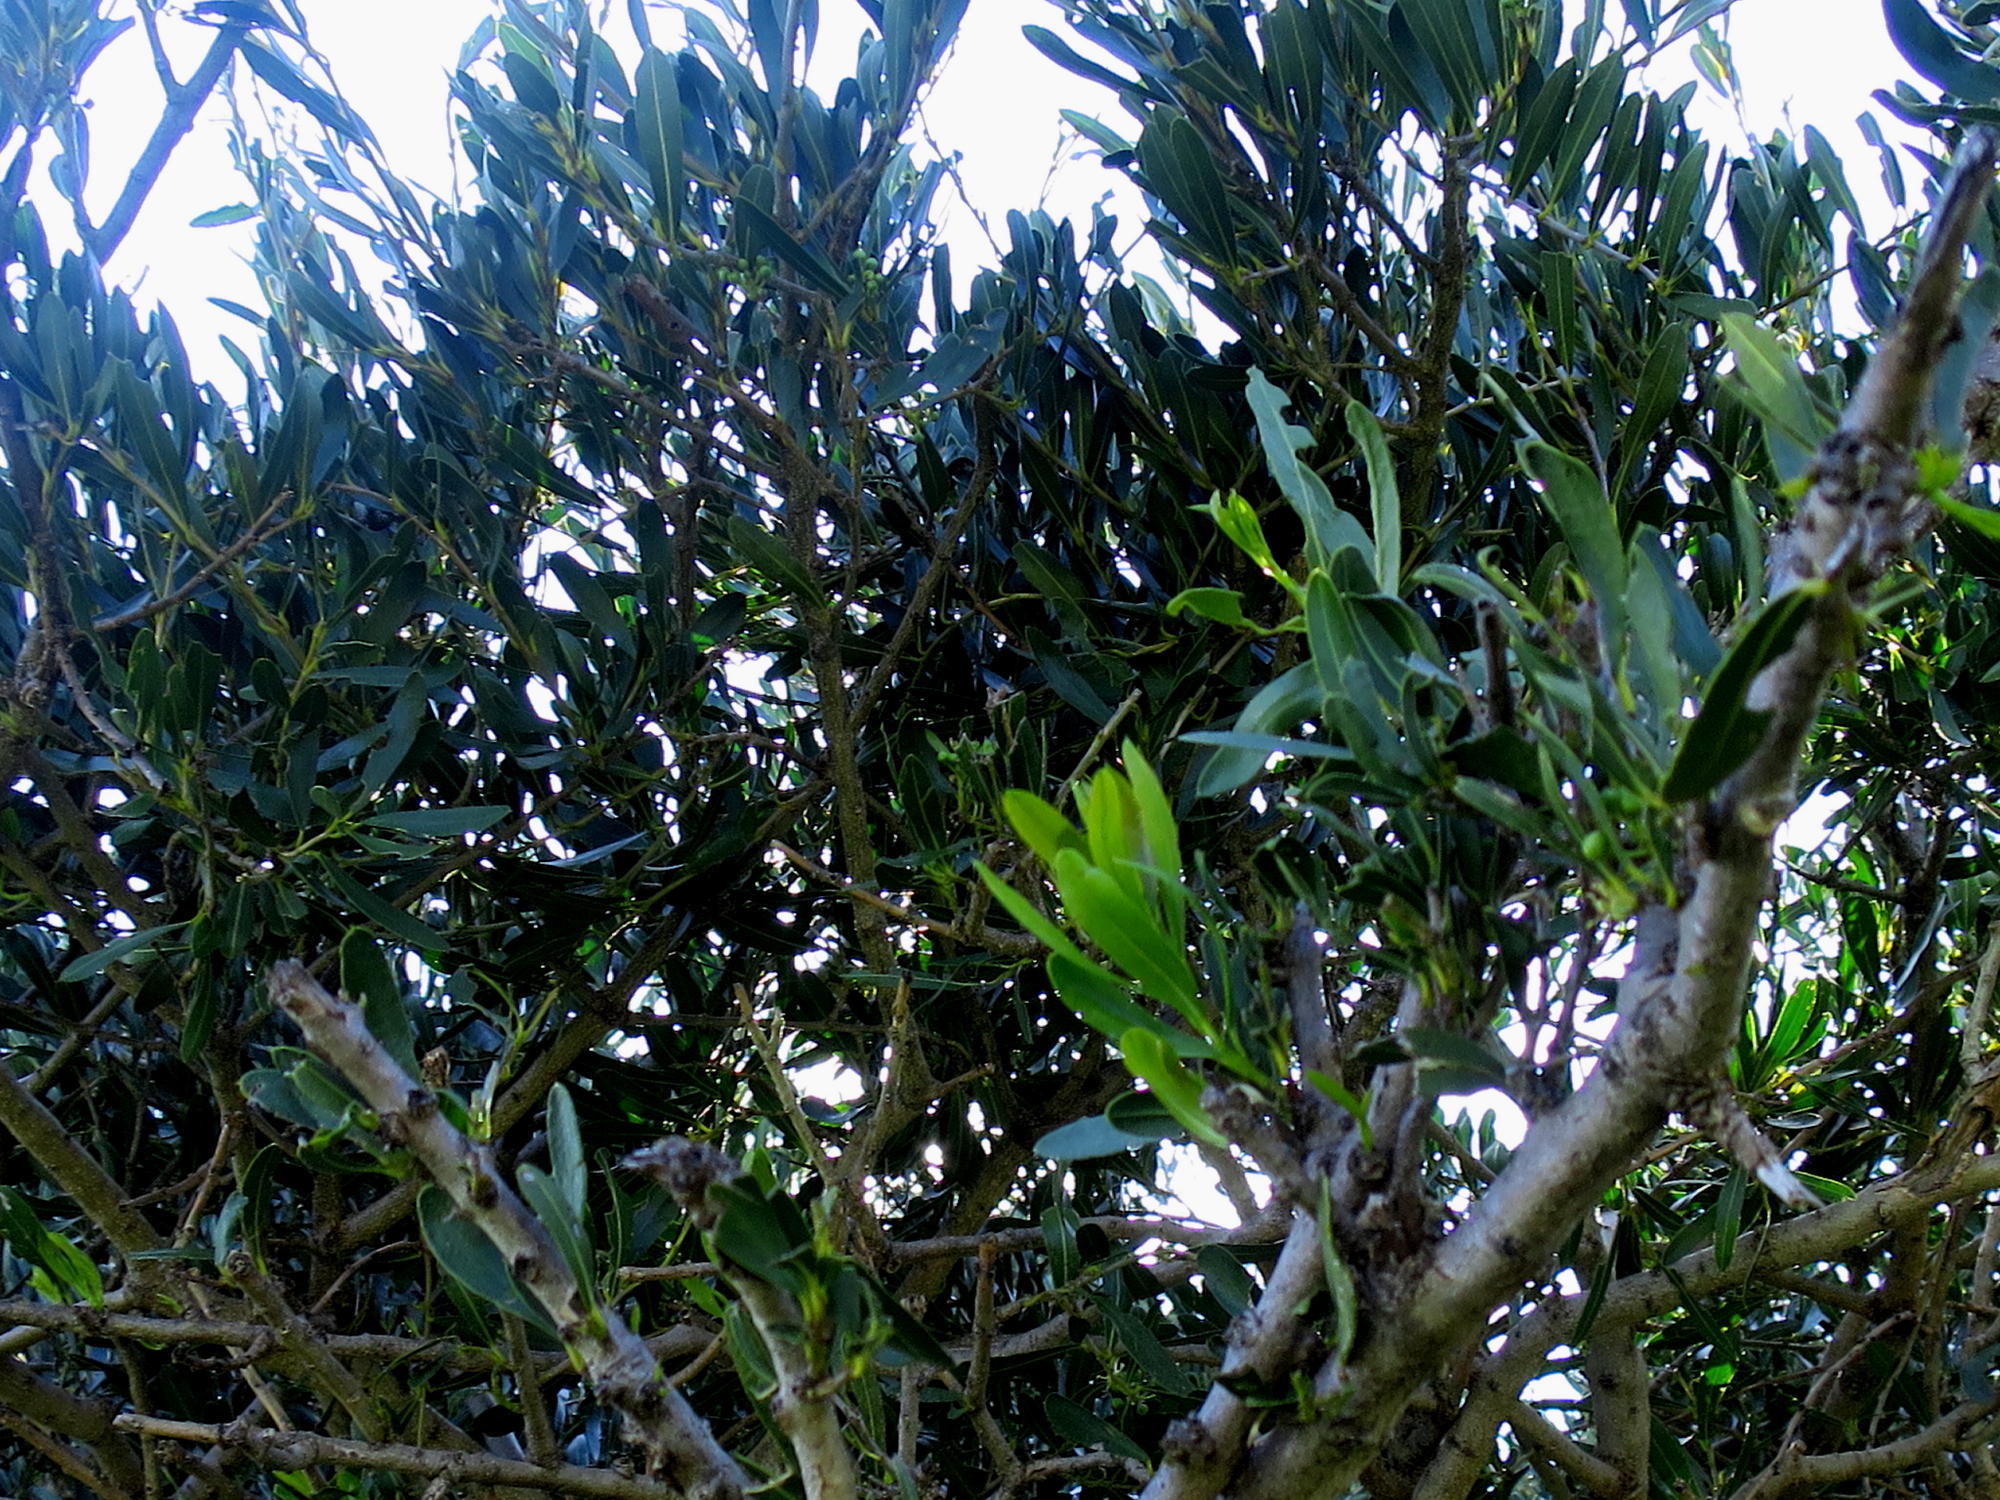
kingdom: Plantae
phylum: Tracheophyta
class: Magnoliopsida
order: Brassicales
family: Capparaceae
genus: Boscia
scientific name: Boscia oleoides
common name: Karoo shepherd tree
